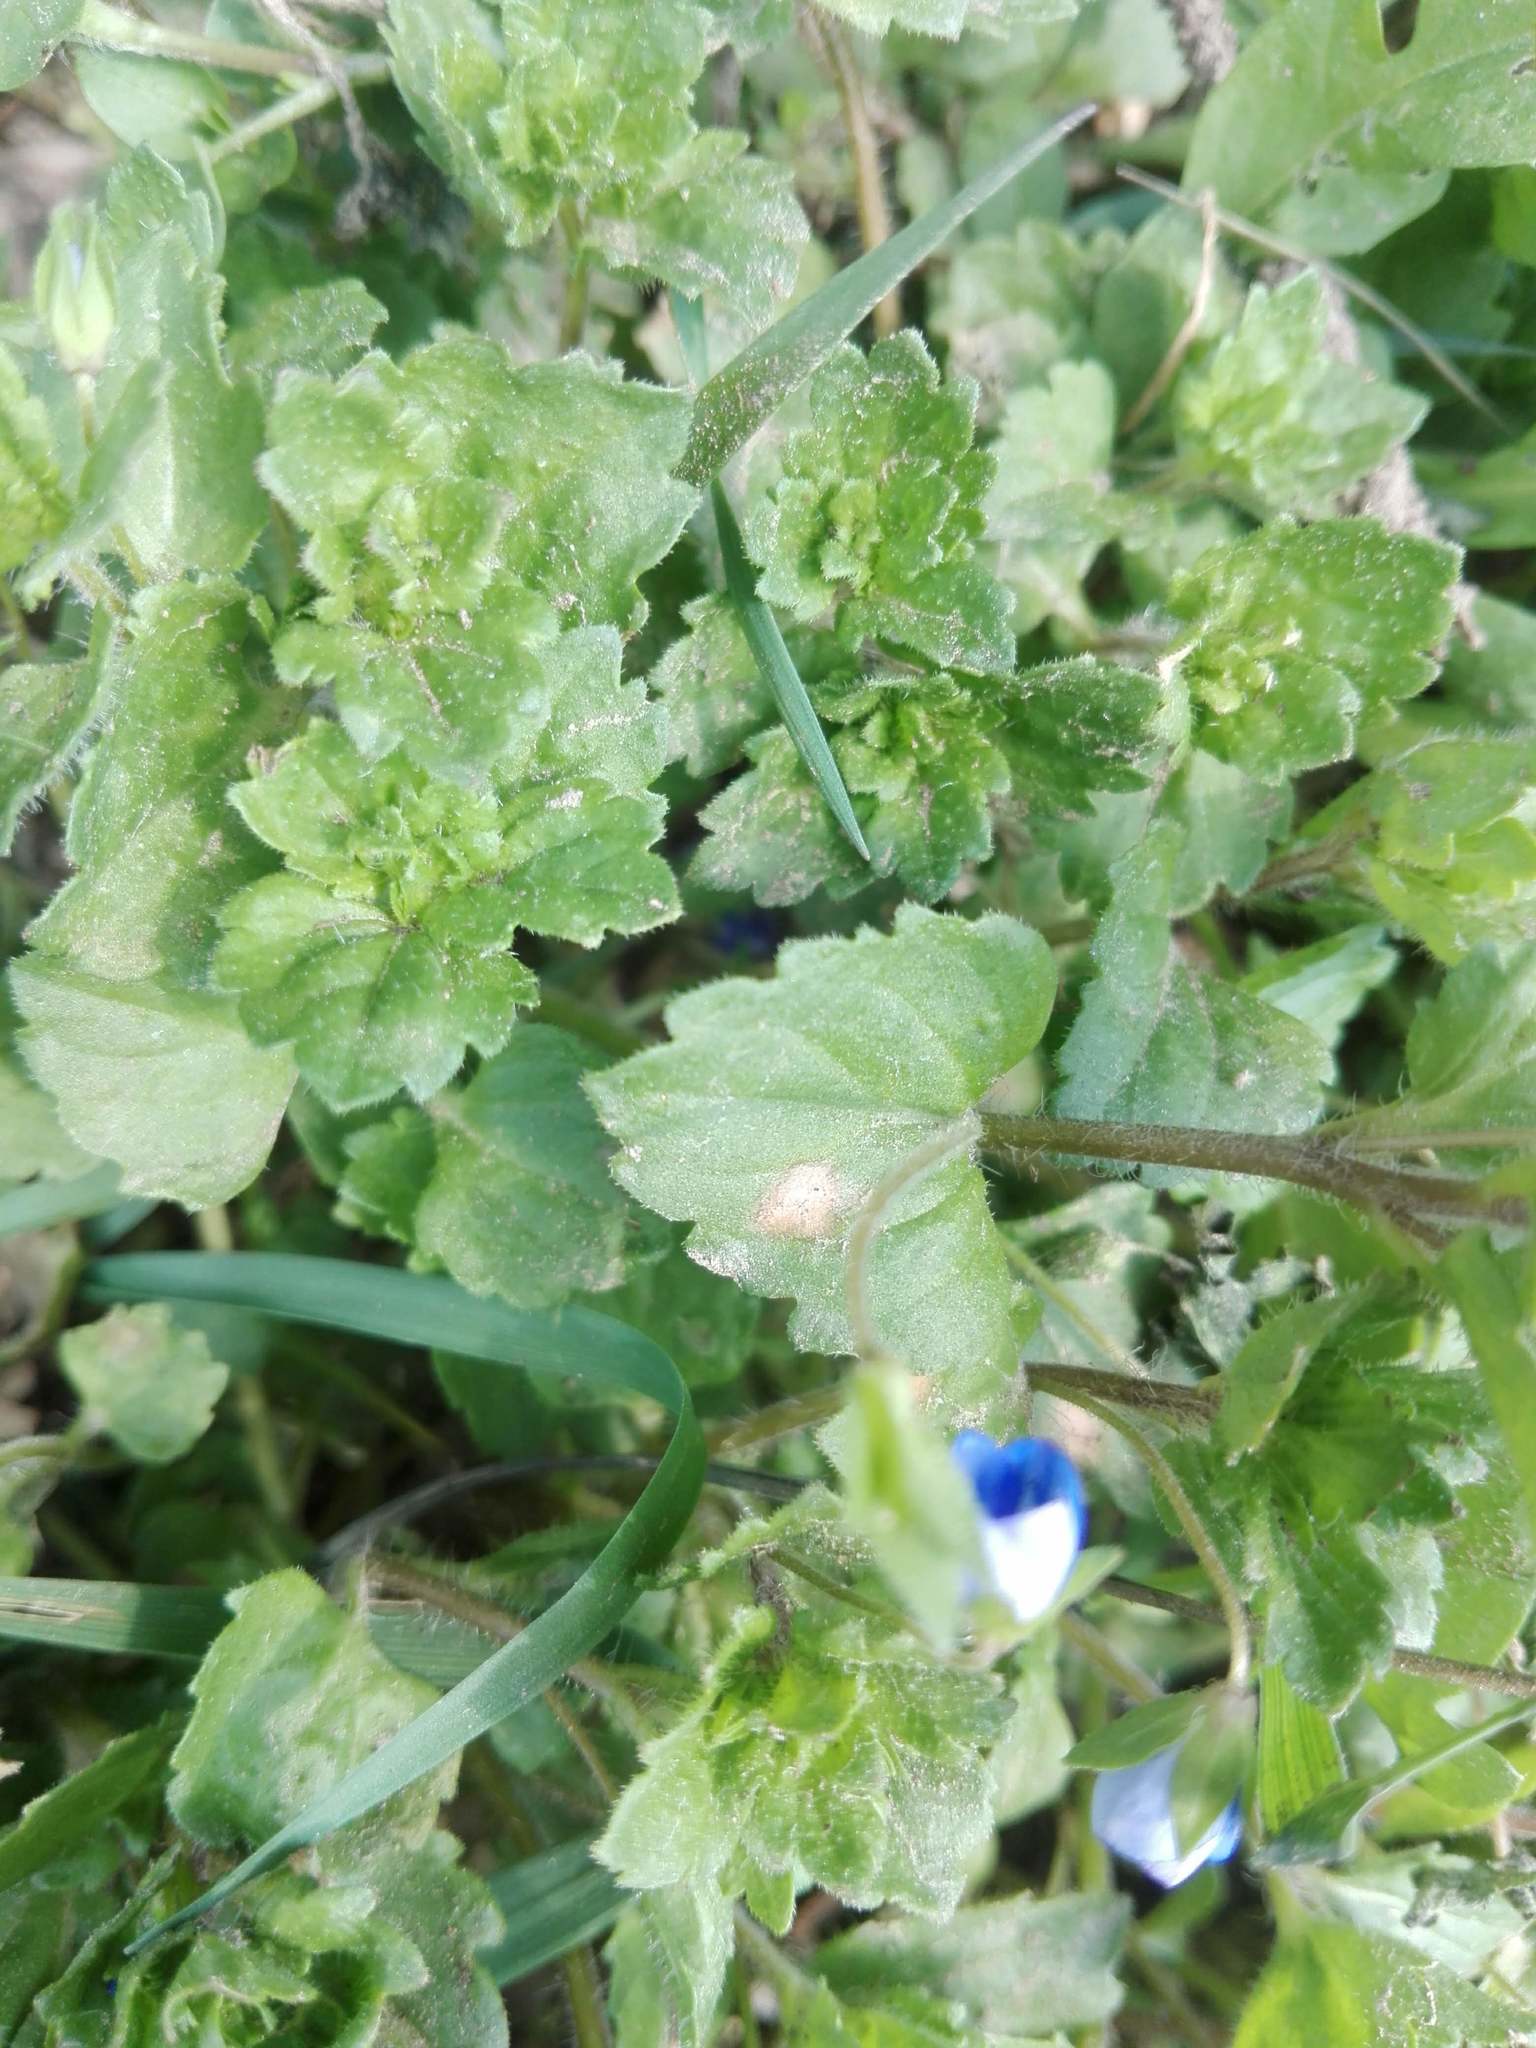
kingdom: Plantae
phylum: Tracheophyta
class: Magnoliopsida
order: Lamiales
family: Plantaginaceae
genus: Veronica
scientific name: Veronica persica
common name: Common field-speedwell
